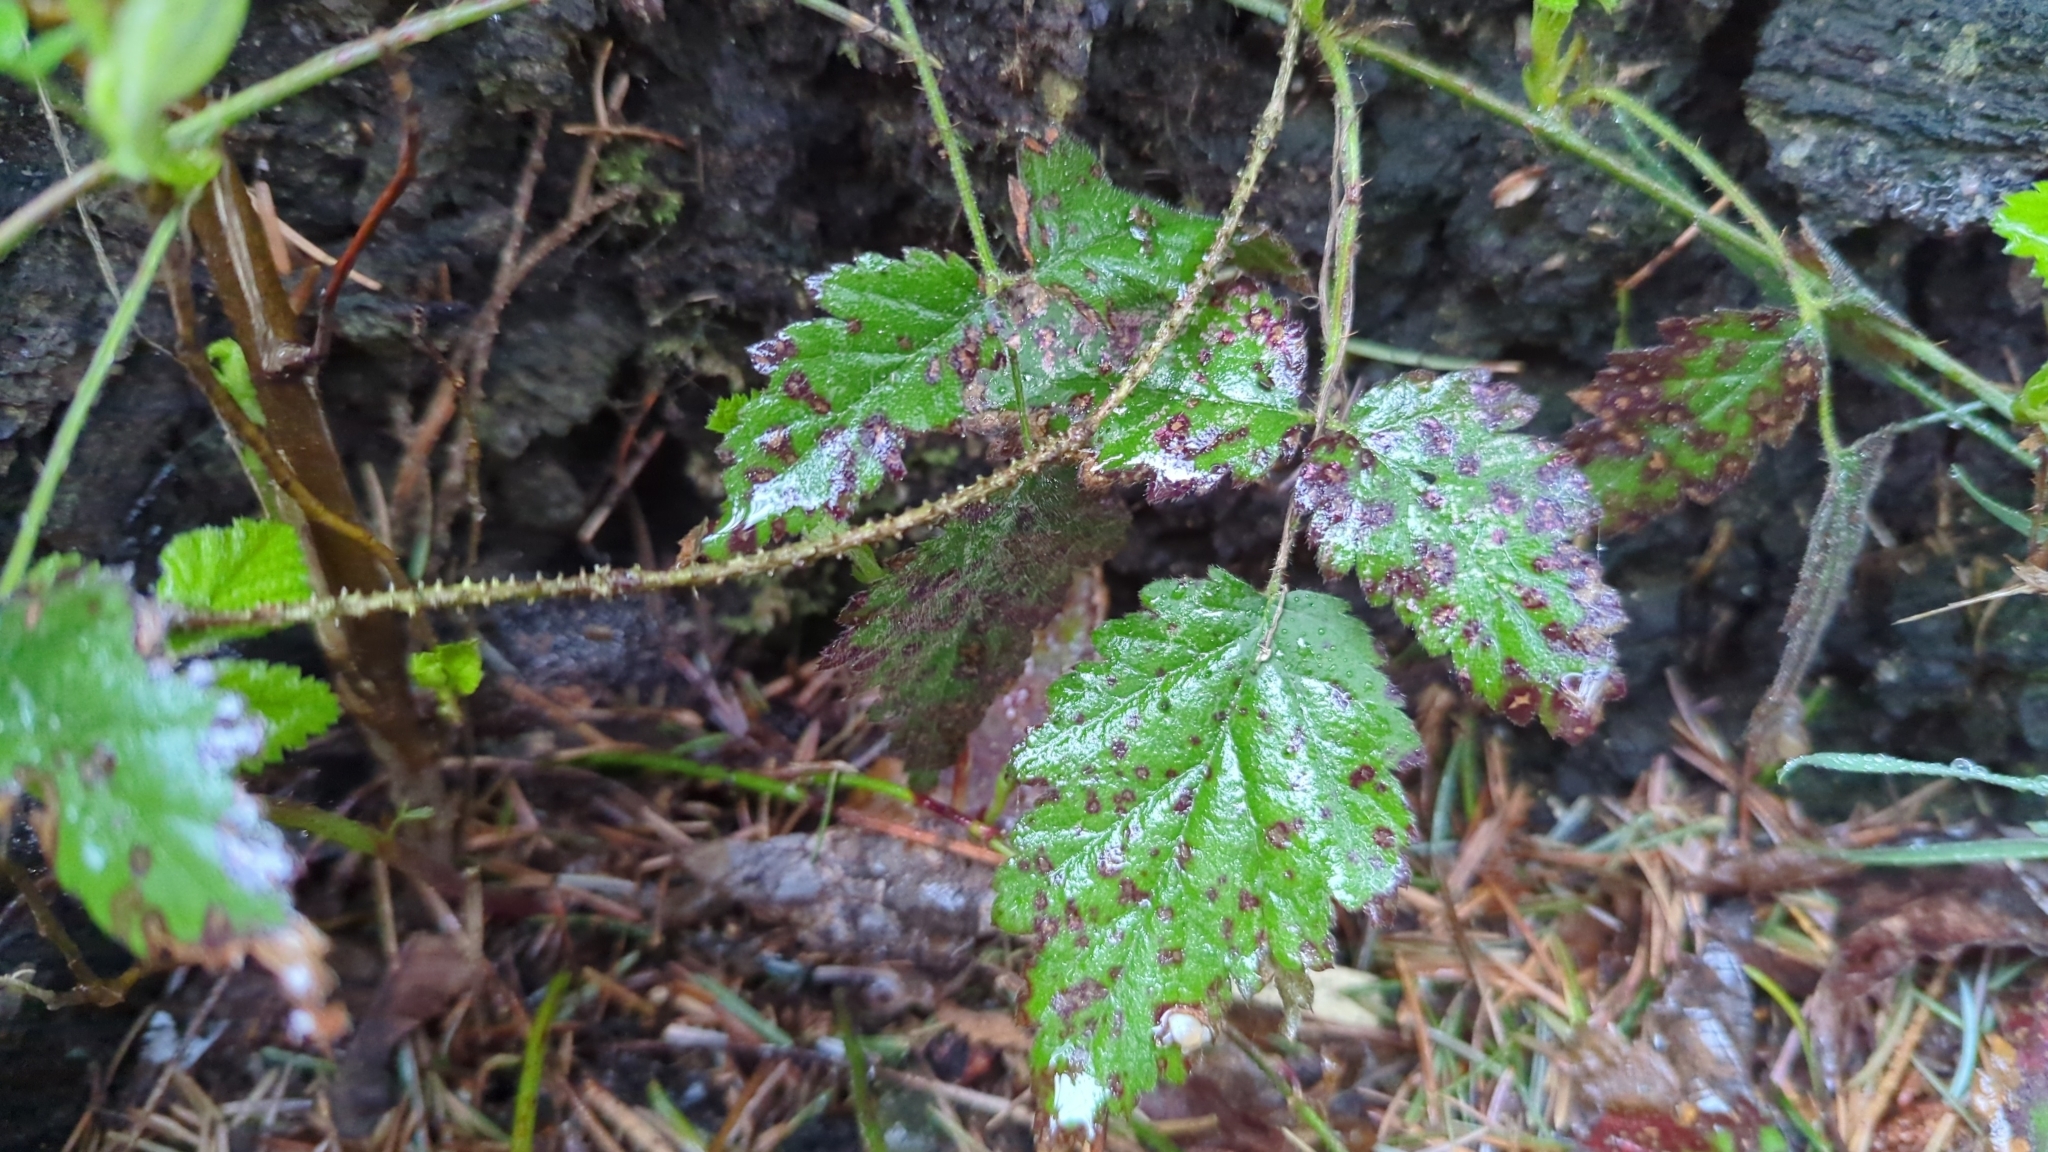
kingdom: Plantae
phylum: Tracheophyta
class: Magnoliopsida
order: Rosales
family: Rosaceae
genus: Rubus
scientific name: Rubus ursinus
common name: Pacific blackberry
